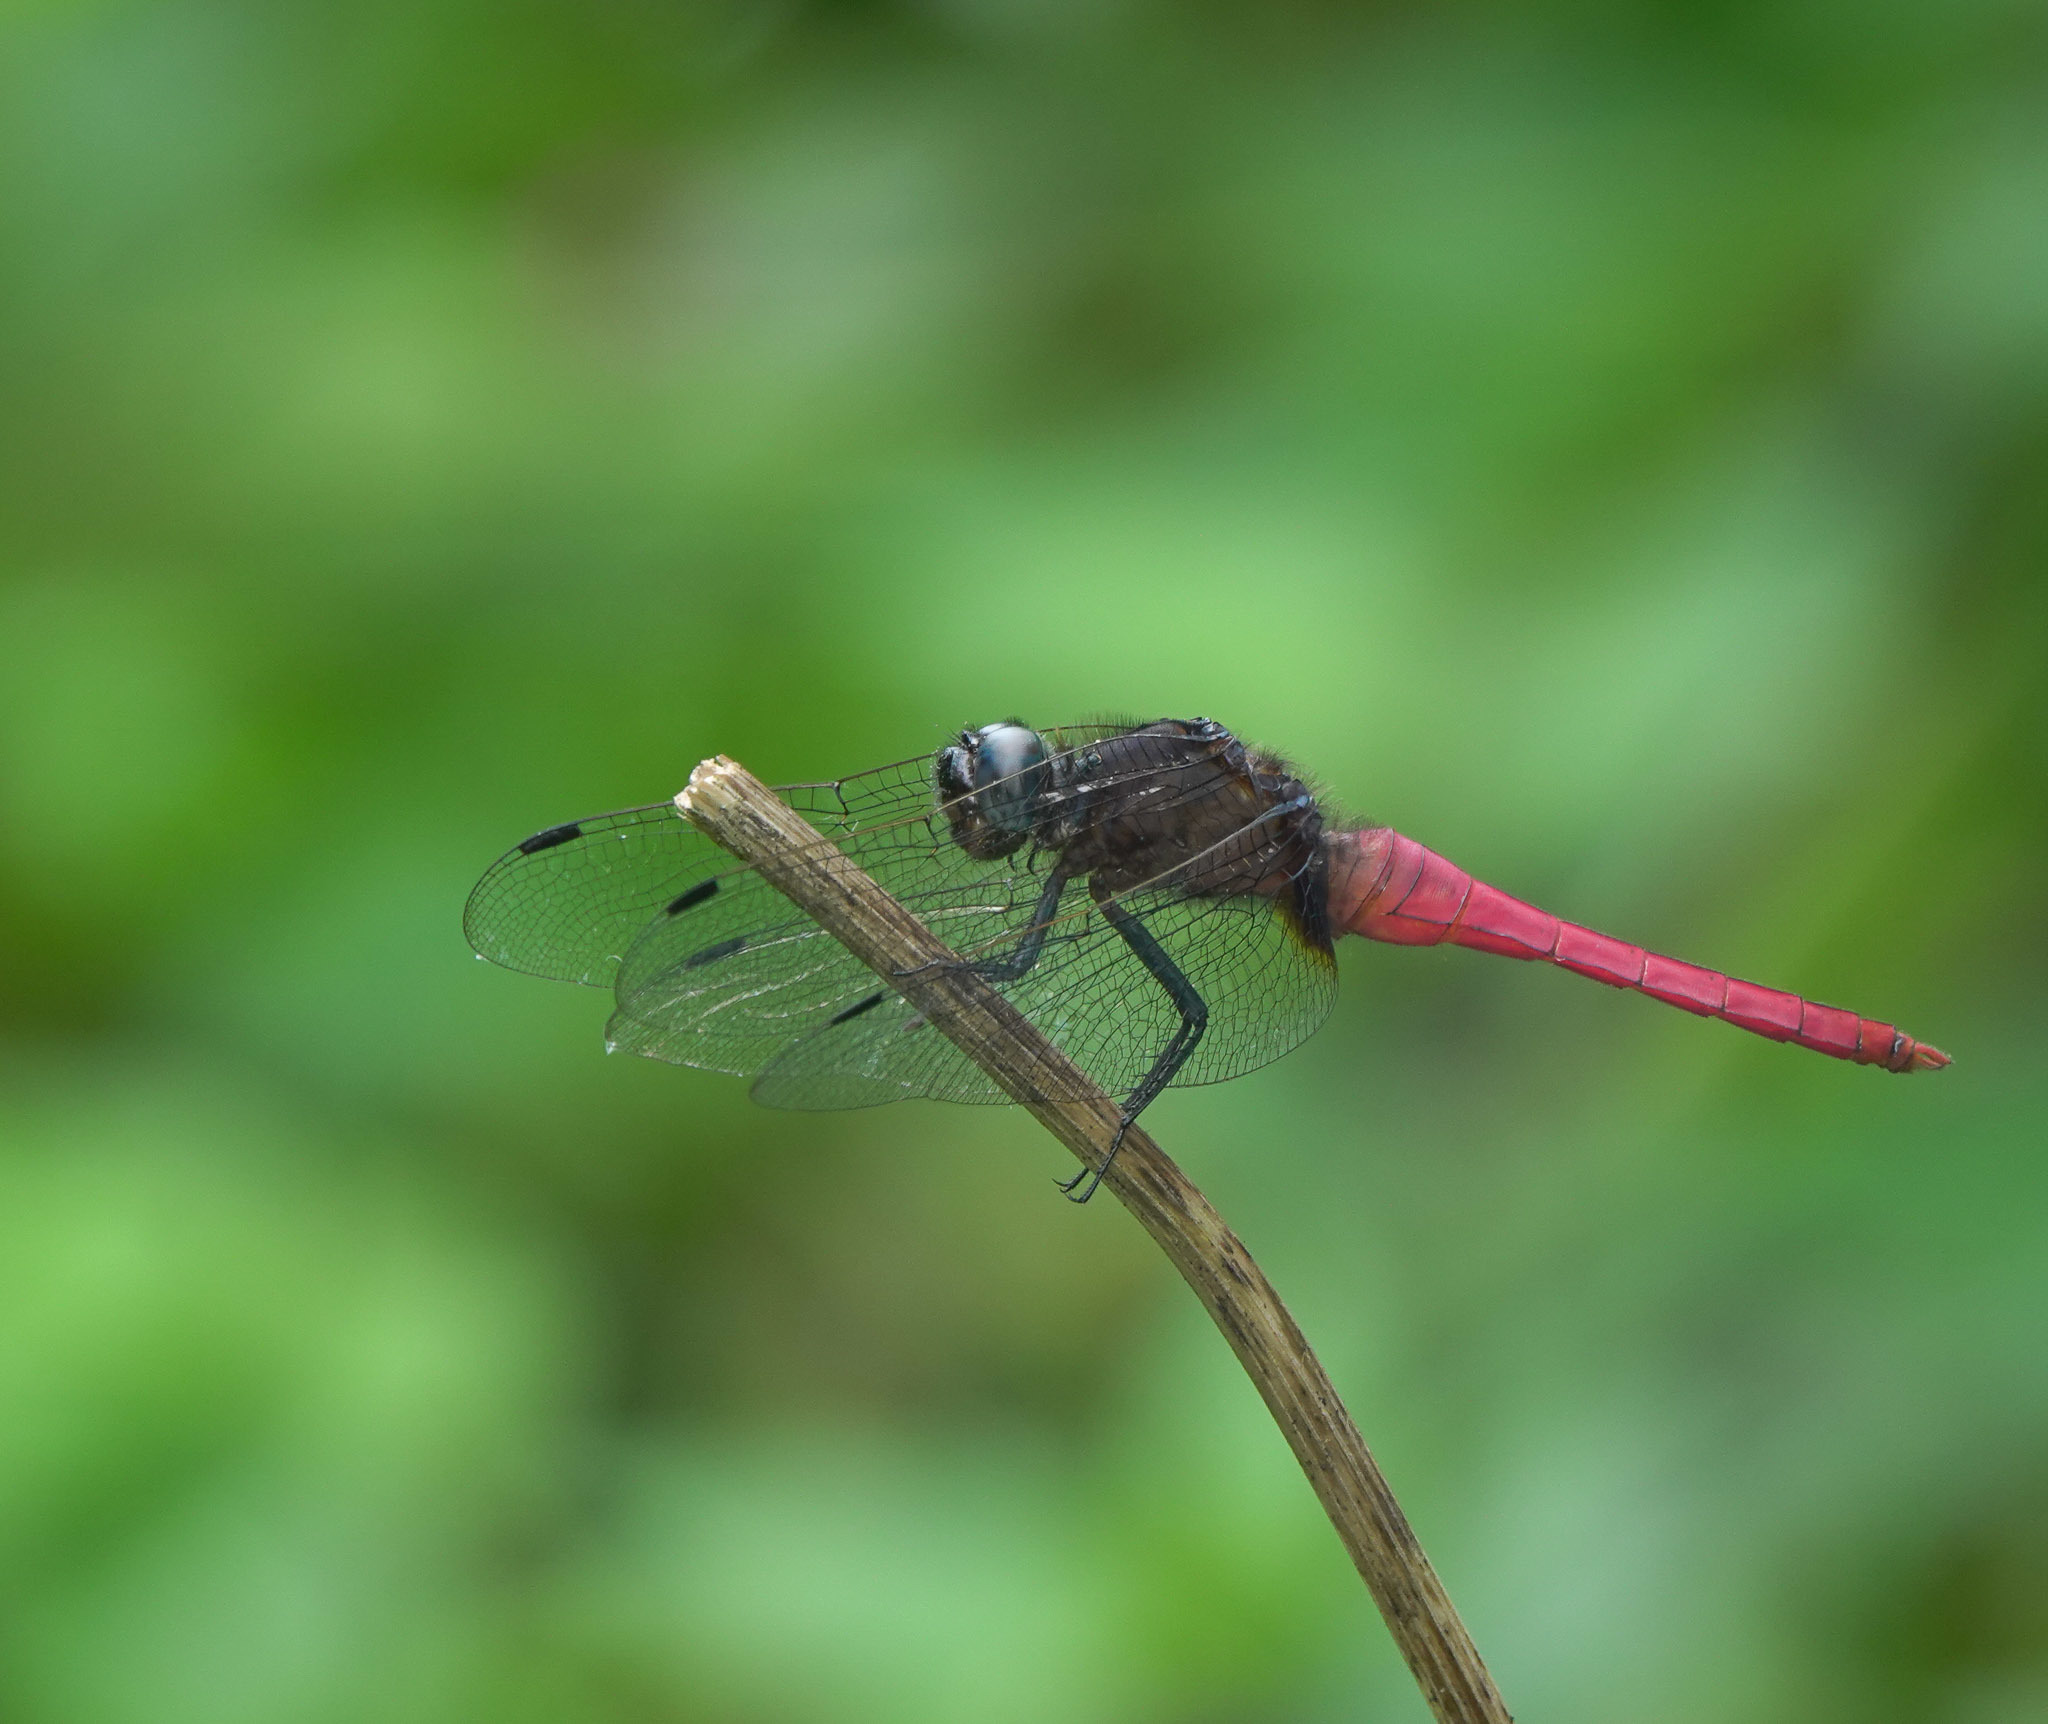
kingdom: Animalia
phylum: Arthropoda
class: Insecta
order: Odonata
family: Libellulidae
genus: Orthetrum
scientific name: Orthetrum pruinosum
